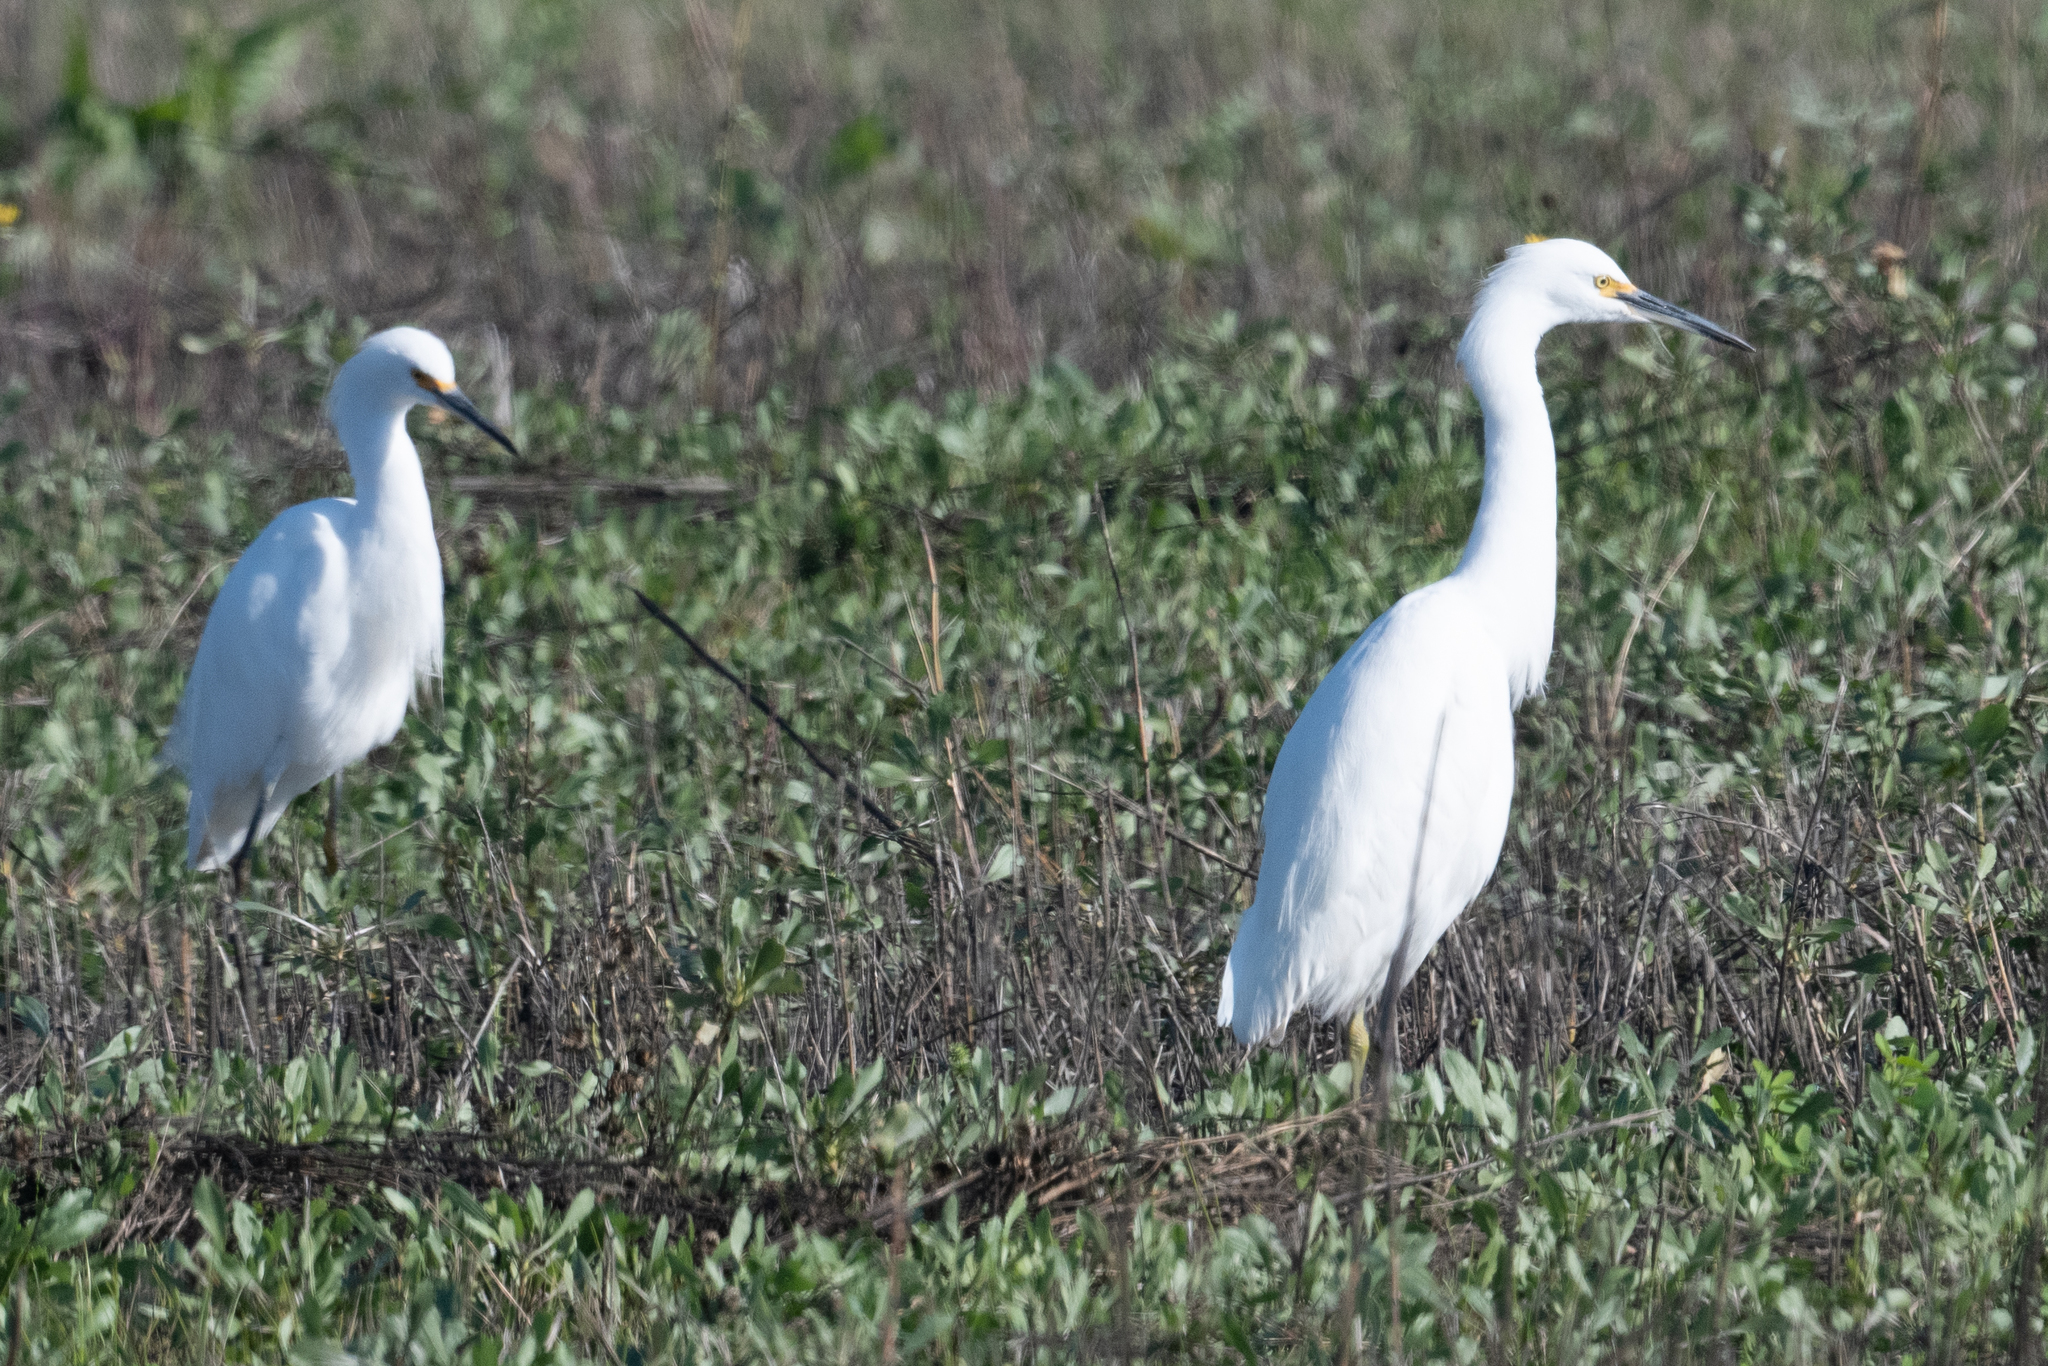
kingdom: Animalia
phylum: Chordata
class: Aves
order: Pelecaniformes
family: Ardeidae
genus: Egretta
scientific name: Egretta thula
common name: Snowy egret
